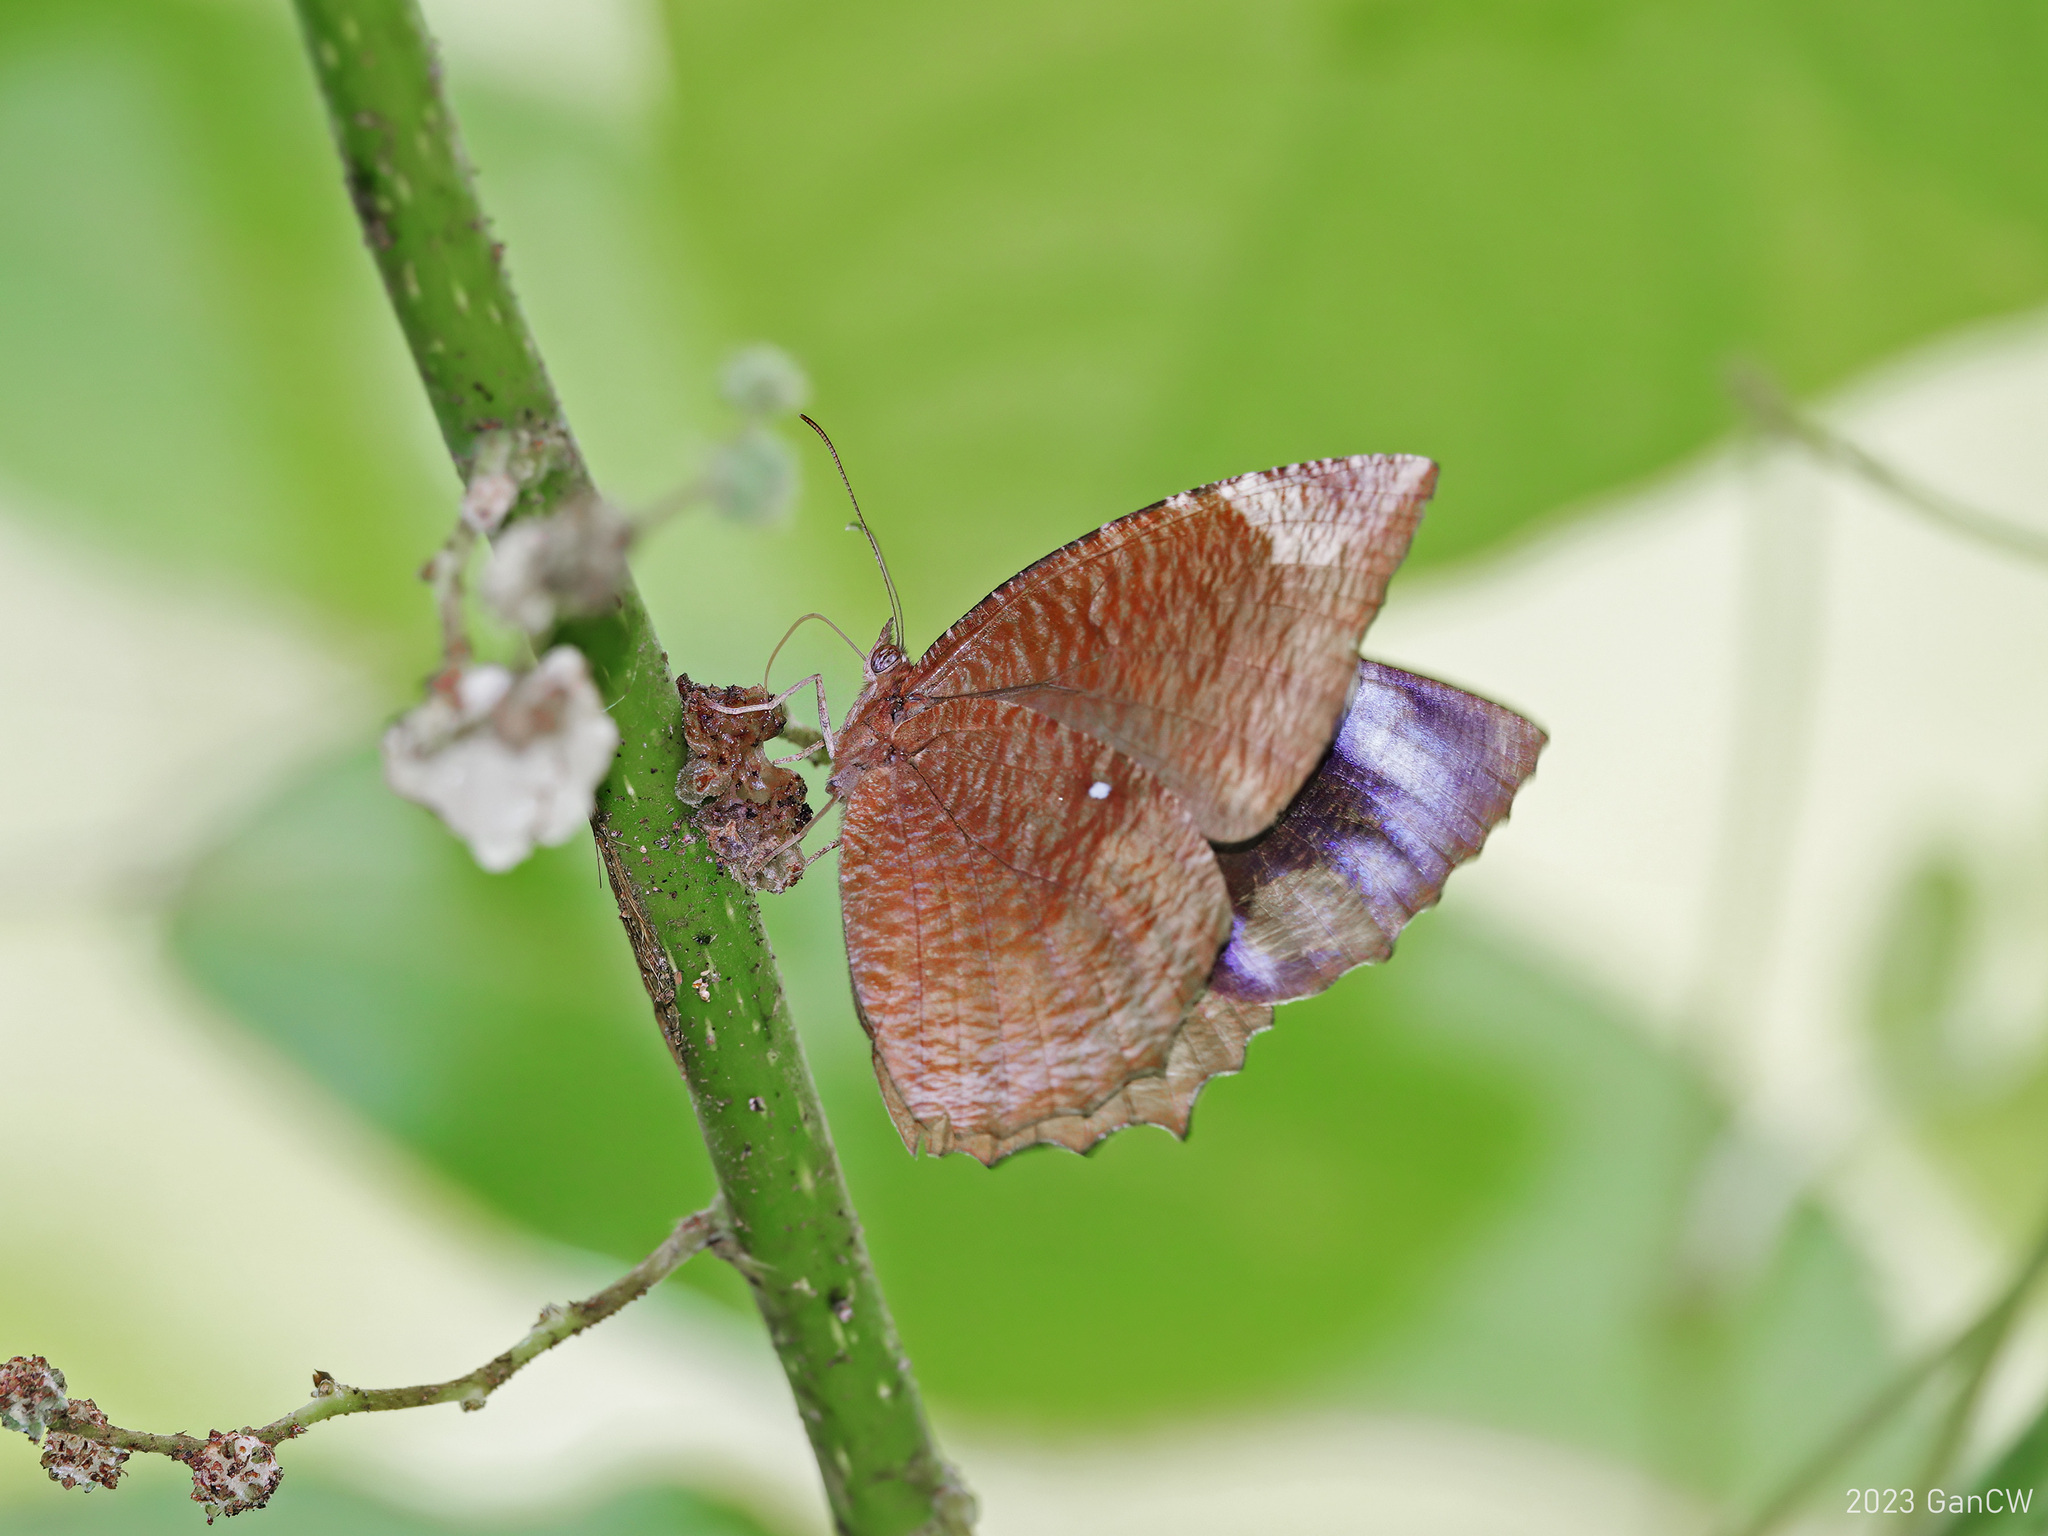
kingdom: Animalia
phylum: Arthropoda
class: Insecta
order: Lepidoptera
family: Nymphalidae
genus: Elymnias
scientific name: Elymnias hypermnestra
